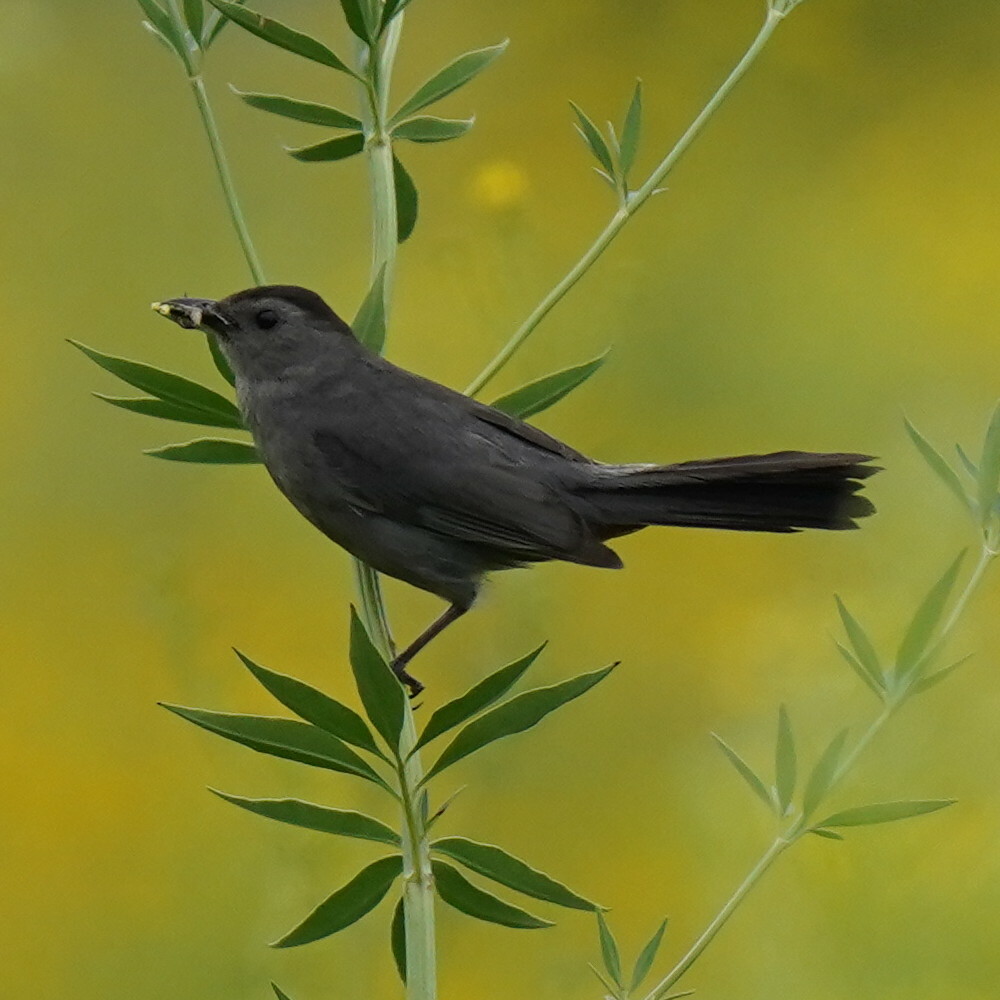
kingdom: Animalia
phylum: Chordata
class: Aves
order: Passeriformes
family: Mimidae
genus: Dumetella
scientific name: Dumetella carolinensis
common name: Gray catbird
